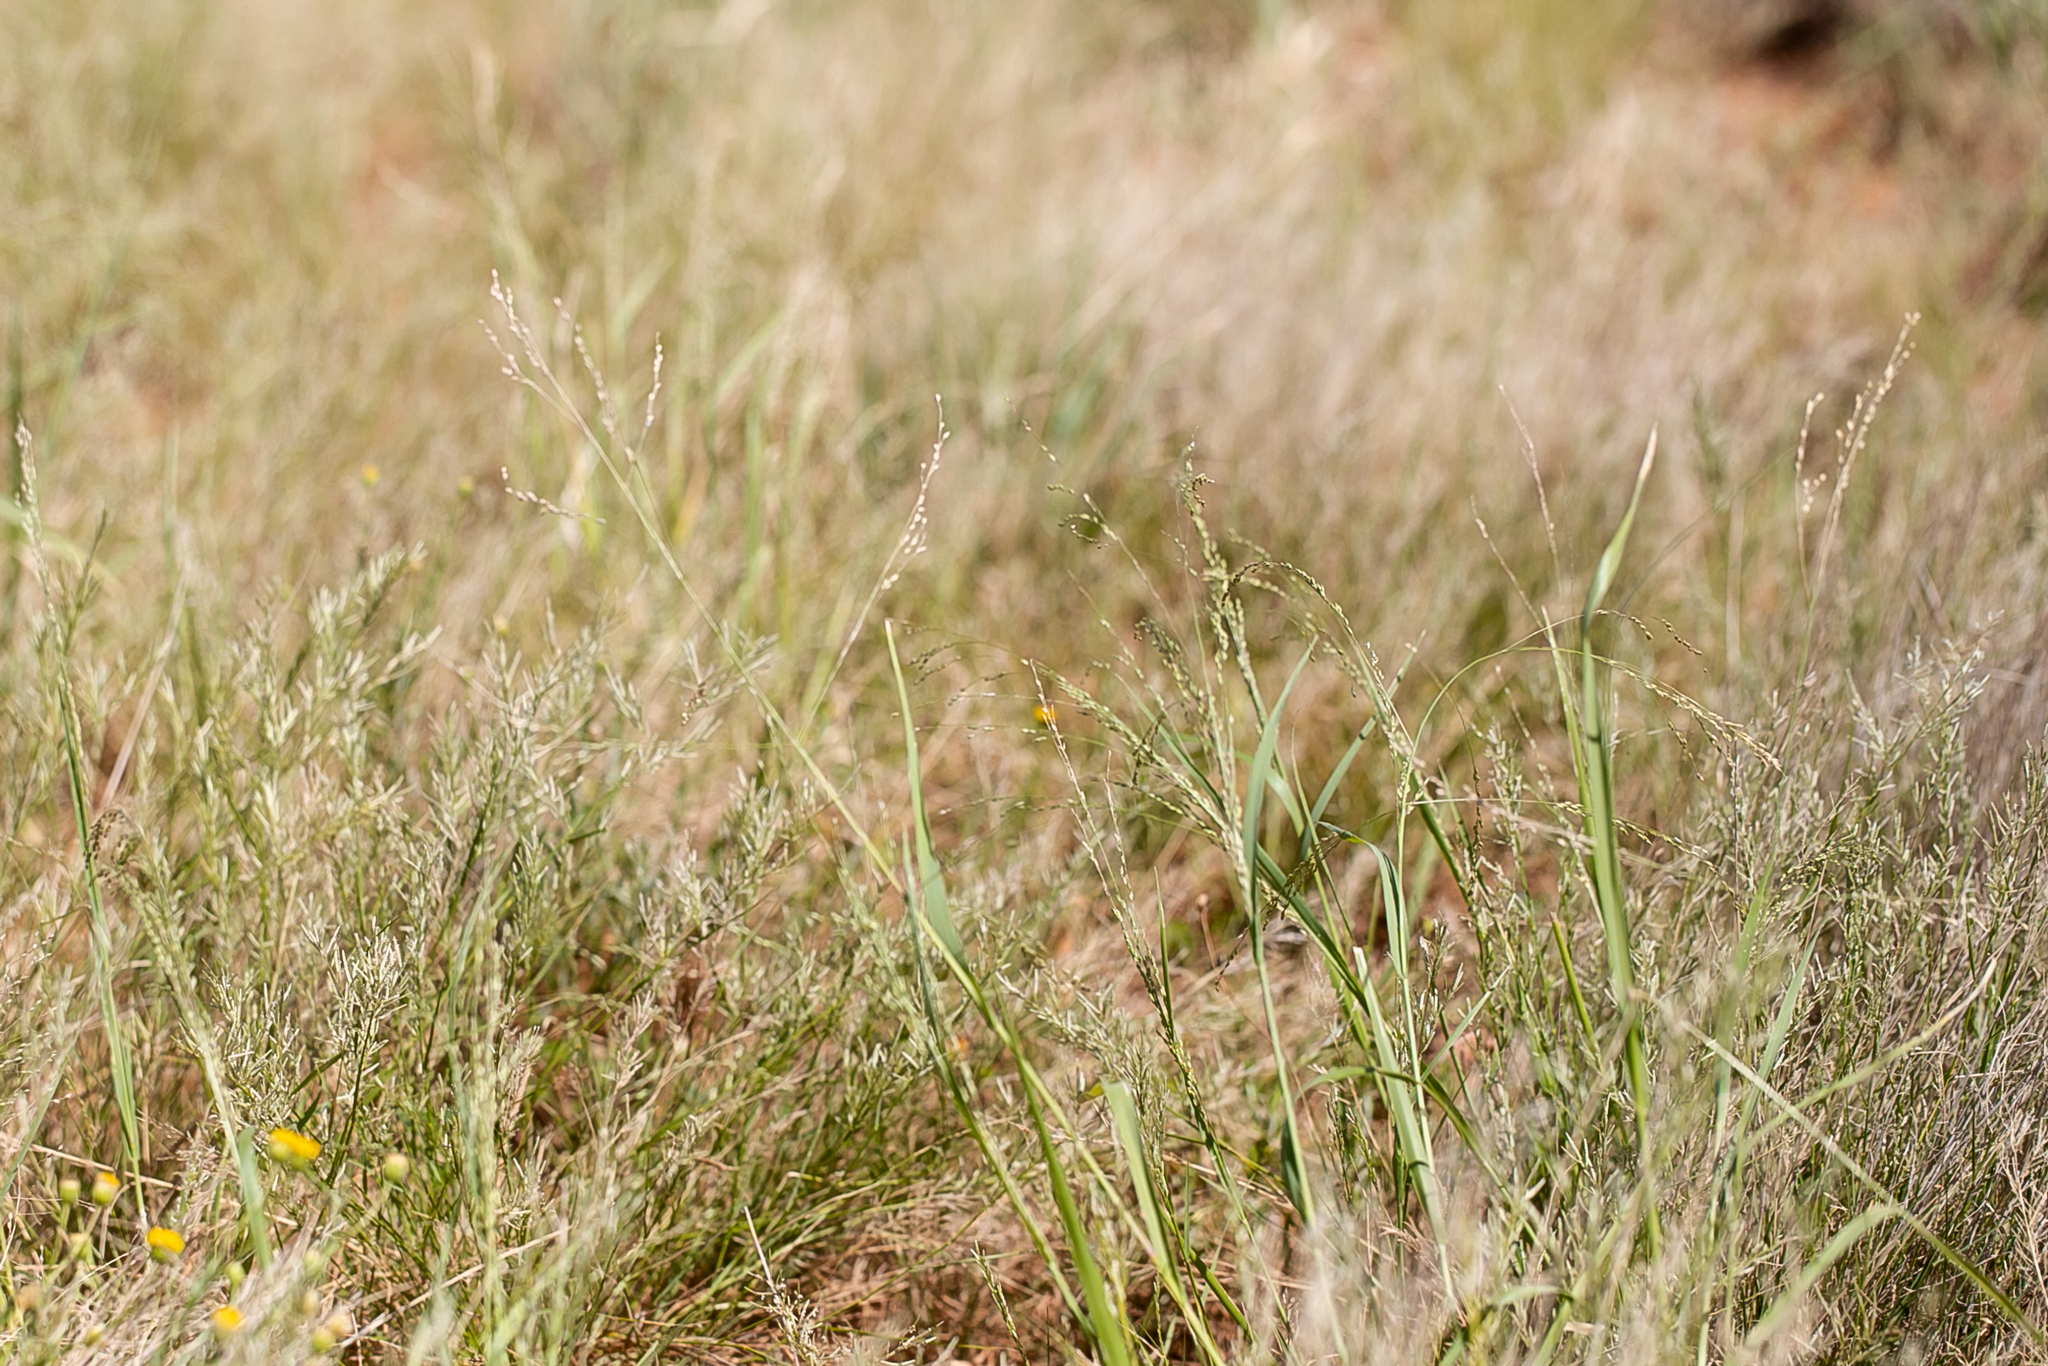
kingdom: Plantae
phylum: Tracheophyta
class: Liliopsida
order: Poales
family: Poaceae
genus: Panicum
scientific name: Panicum decompositum
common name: Australian millet
